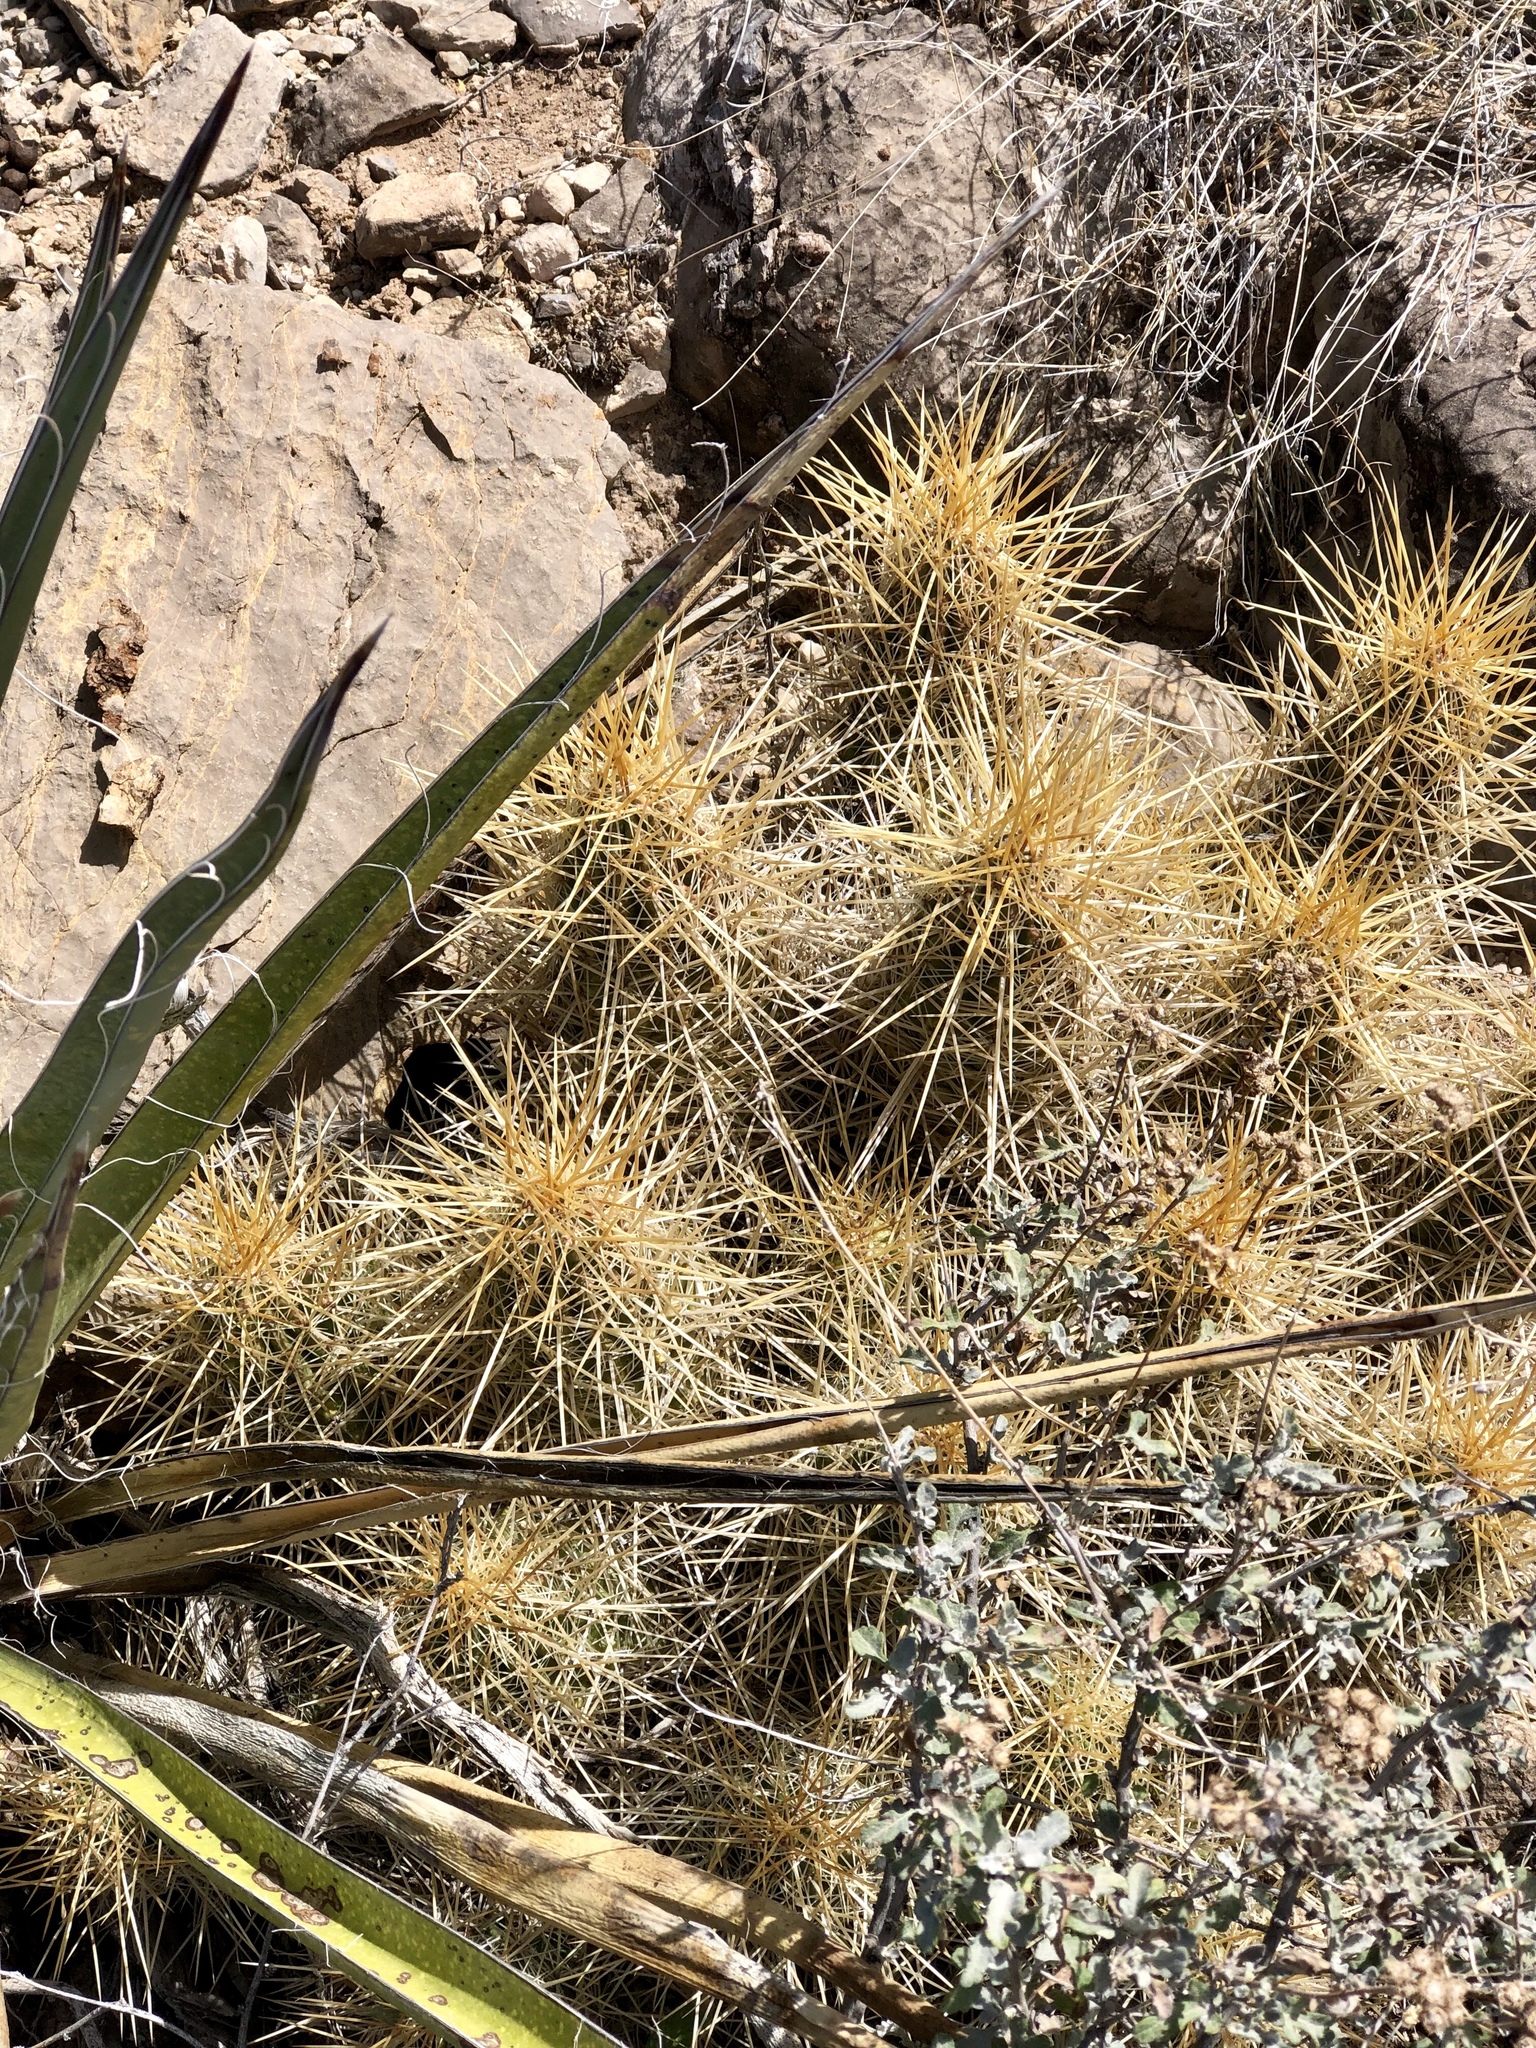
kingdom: Plantae
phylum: Tracheophyta
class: Magnoliopsida
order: Caryophyllales
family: Cactaceae
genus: Echinocereus
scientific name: Echinocereus stramineus
